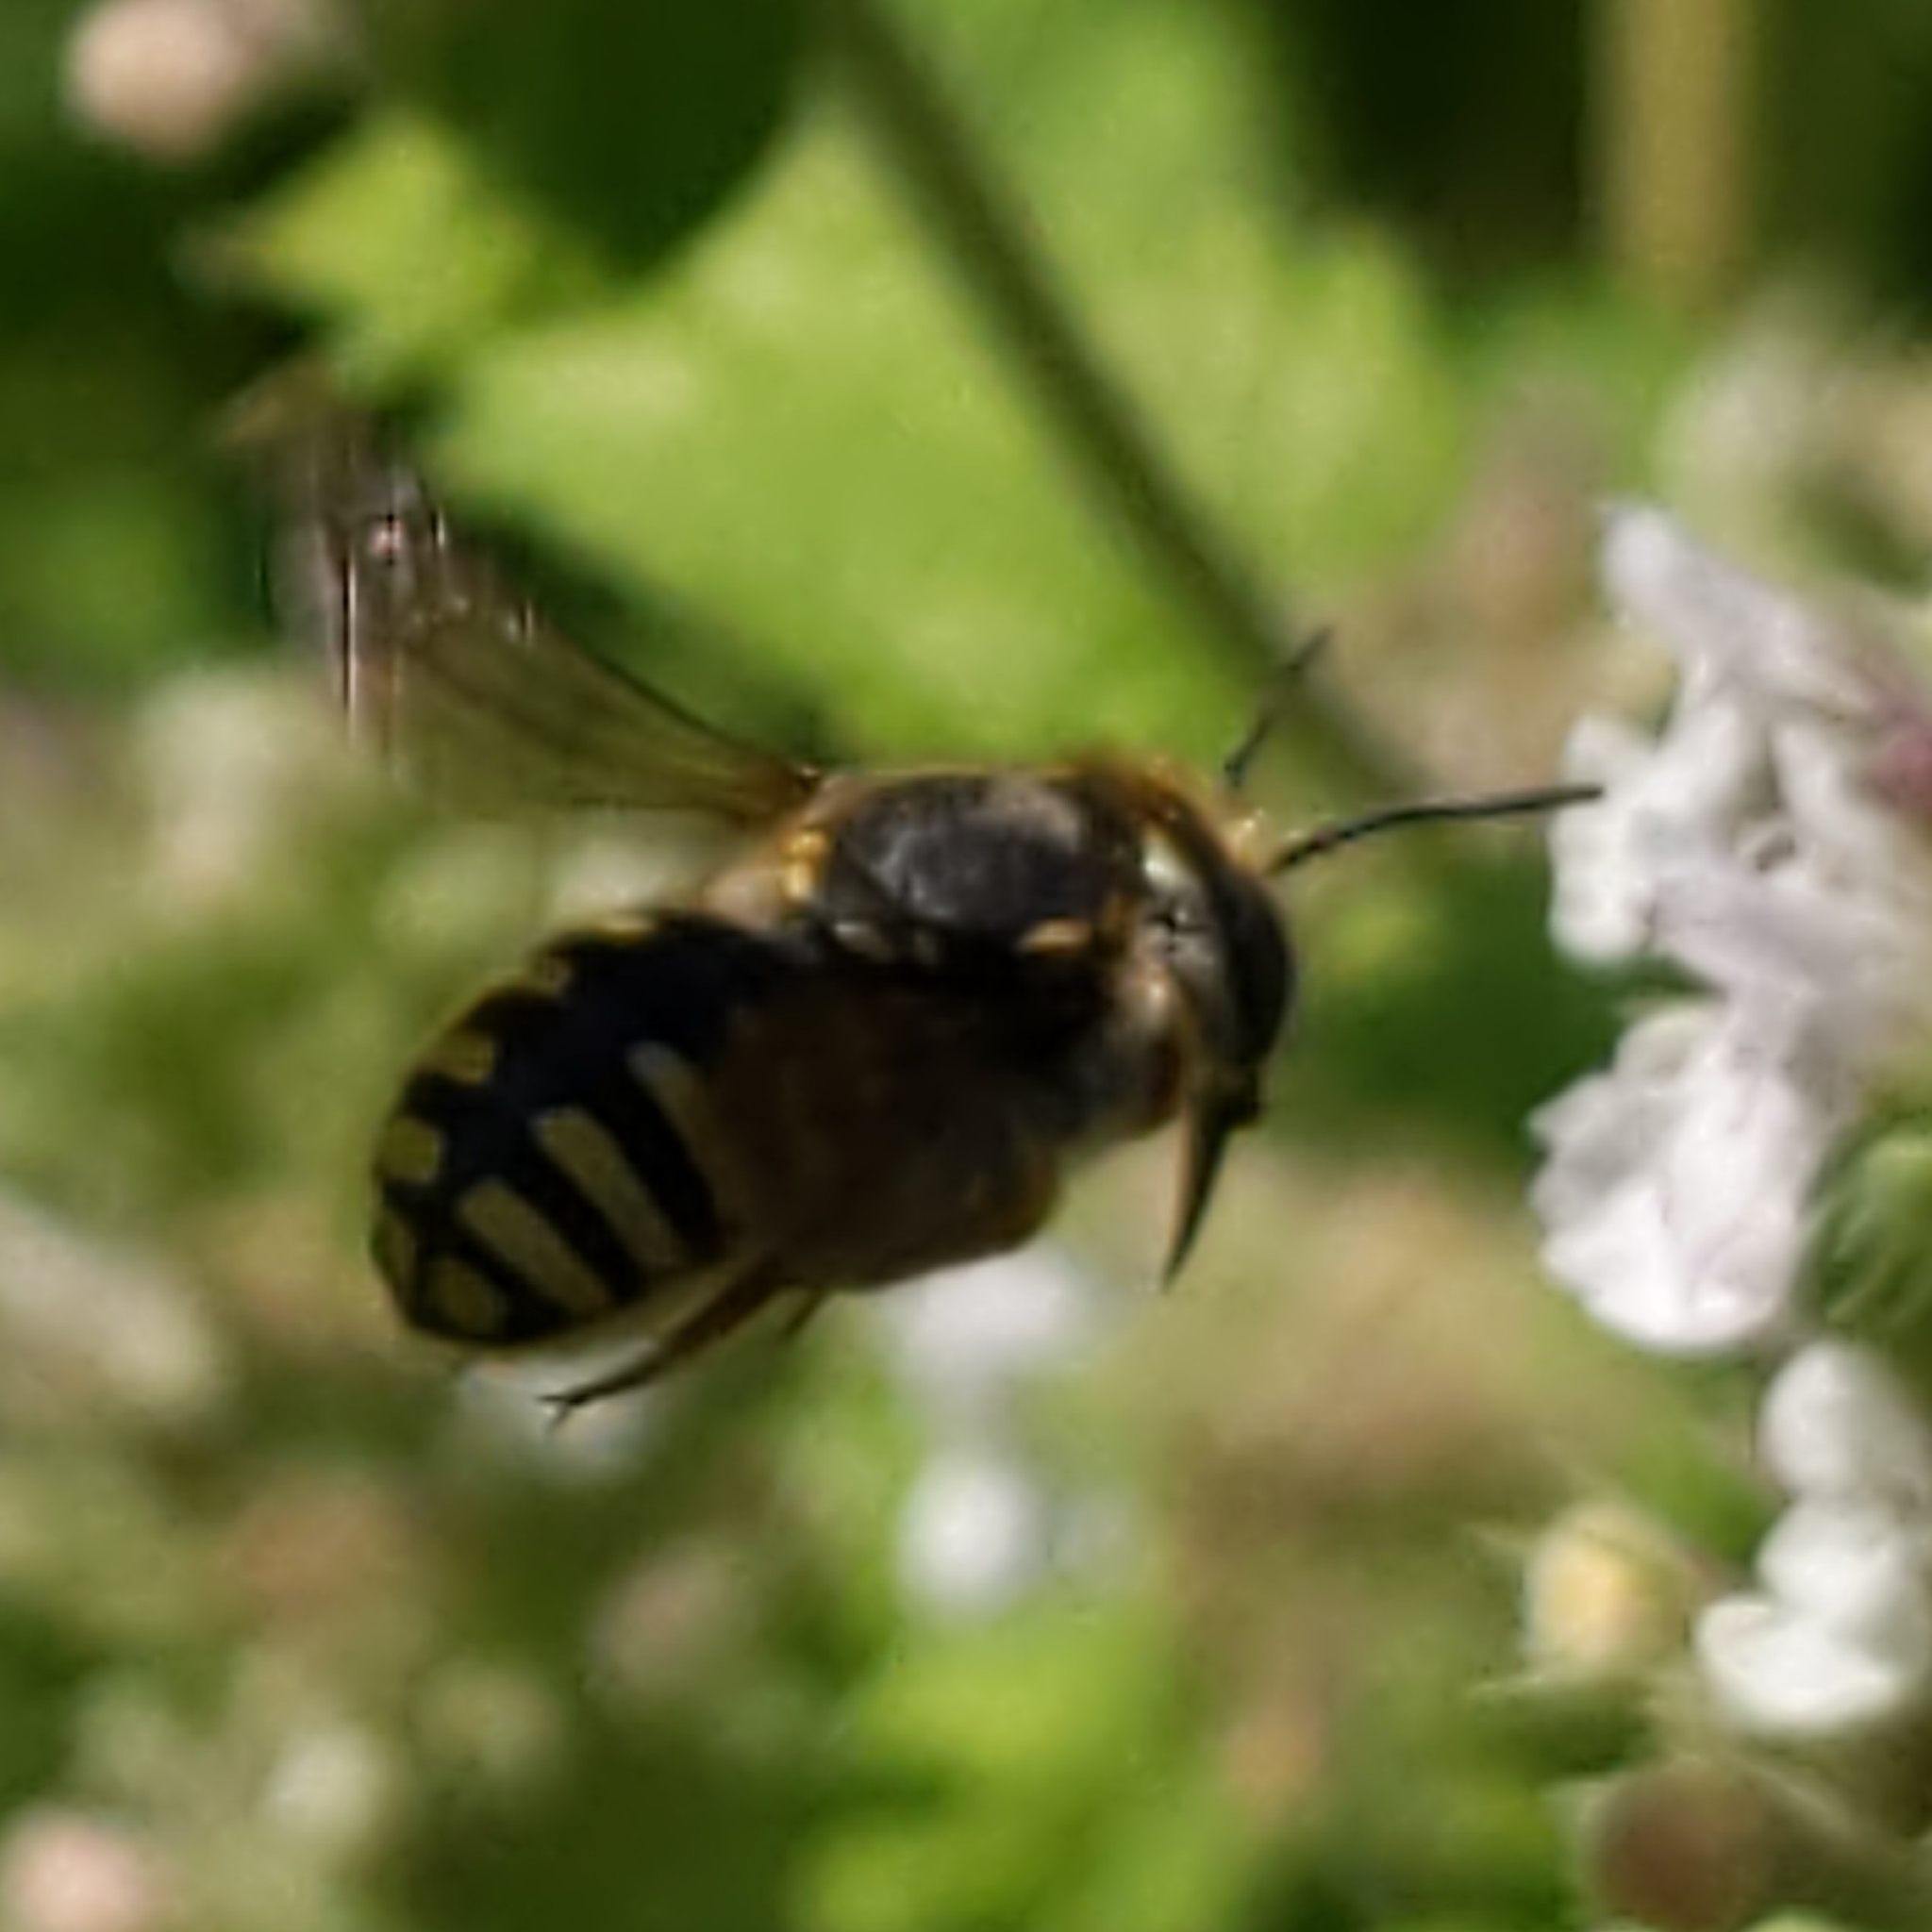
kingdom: Animalia
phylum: Arthropoda
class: Insecta
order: Hymenoptera
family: Megachilidae
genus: Anthidium
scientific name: Anthidium manicatum
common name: Wool carder bee
